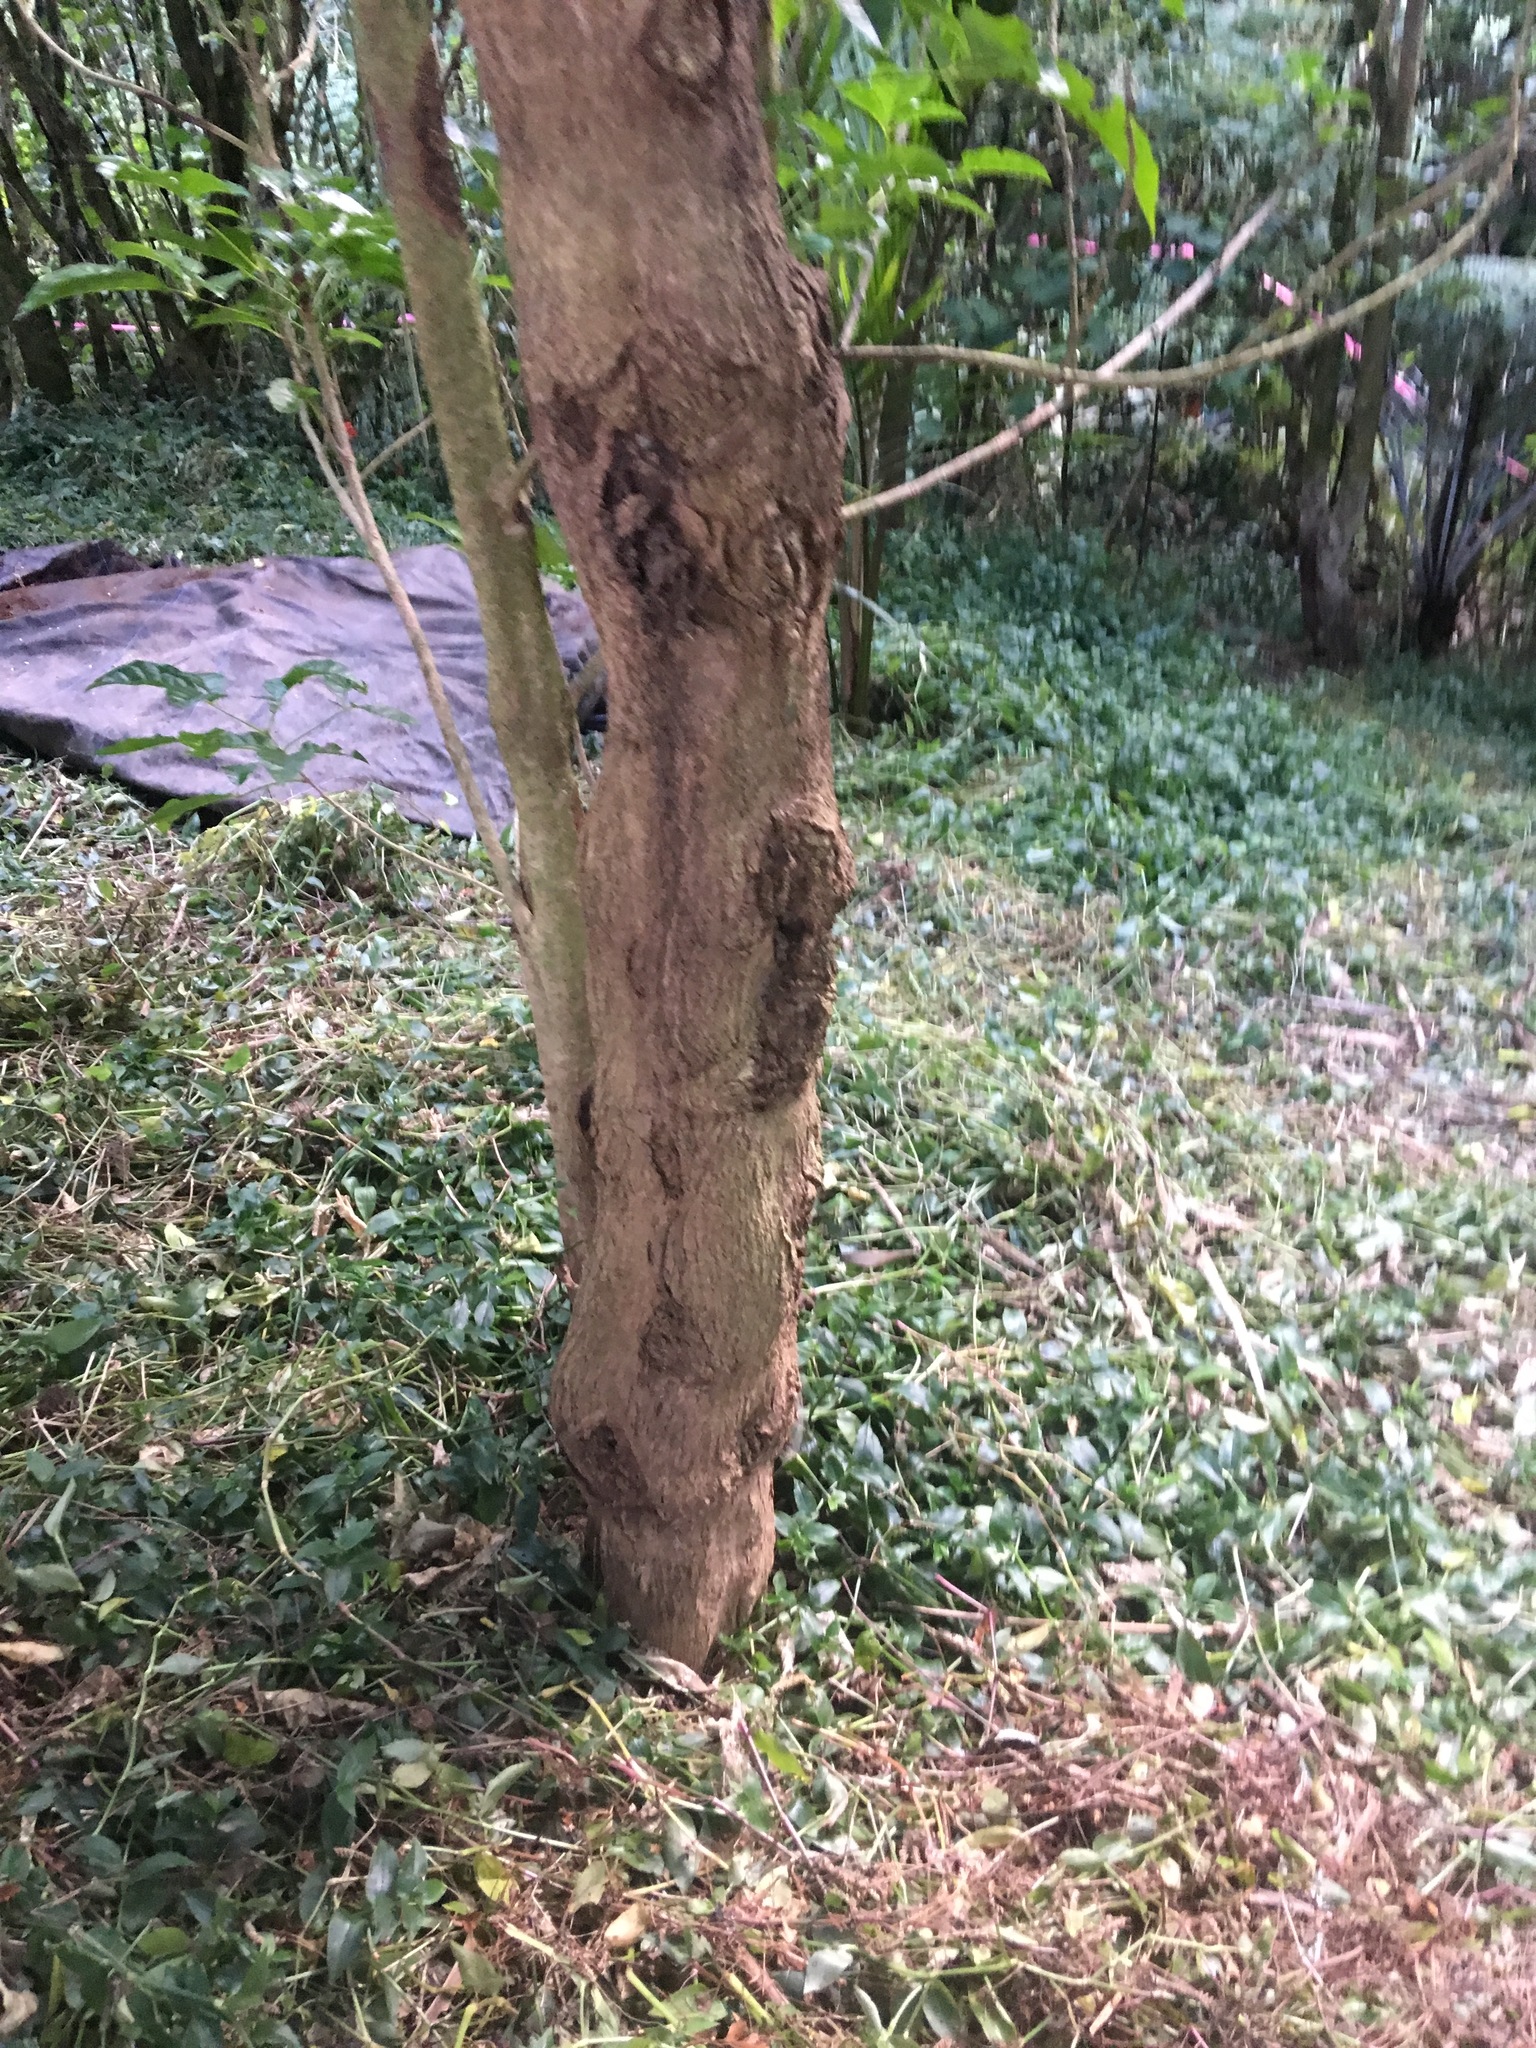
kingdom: Plantae
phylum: Tracheophyta
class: Liliopsida
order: Commelinales
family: Commelinaceae
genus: Tradescantia
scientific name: Tradescantia fluminensis
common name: Wandering-jew
